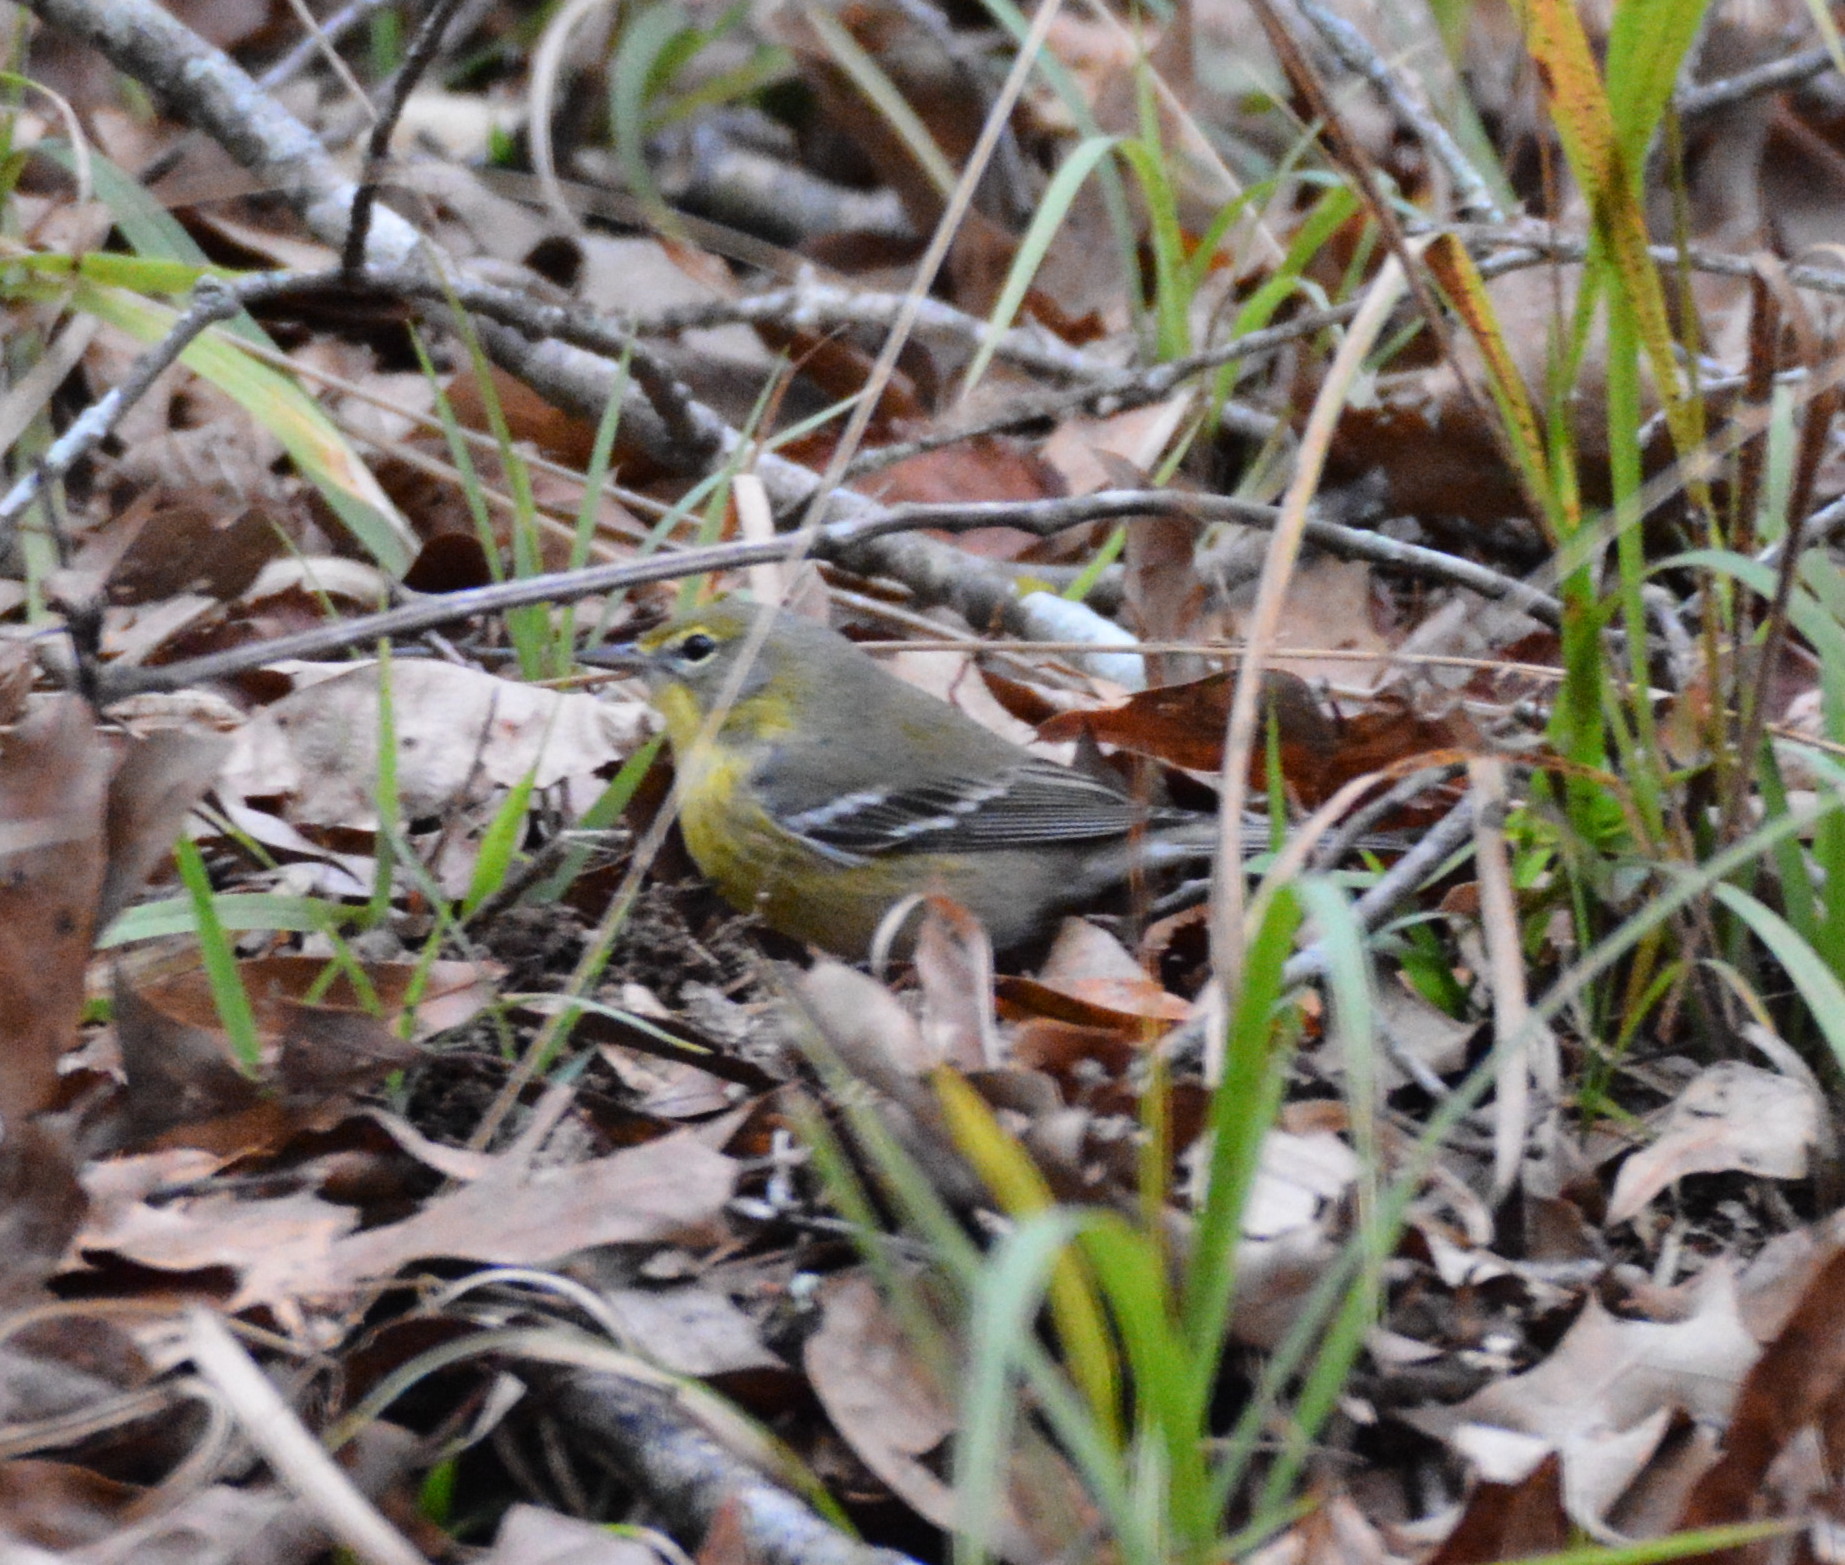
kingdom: Animalia
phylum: Chordata
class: Aves
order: Passeriformes
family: Parulidae
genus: Setophaga
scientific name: Setophaga pinus
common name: Pine warbler
